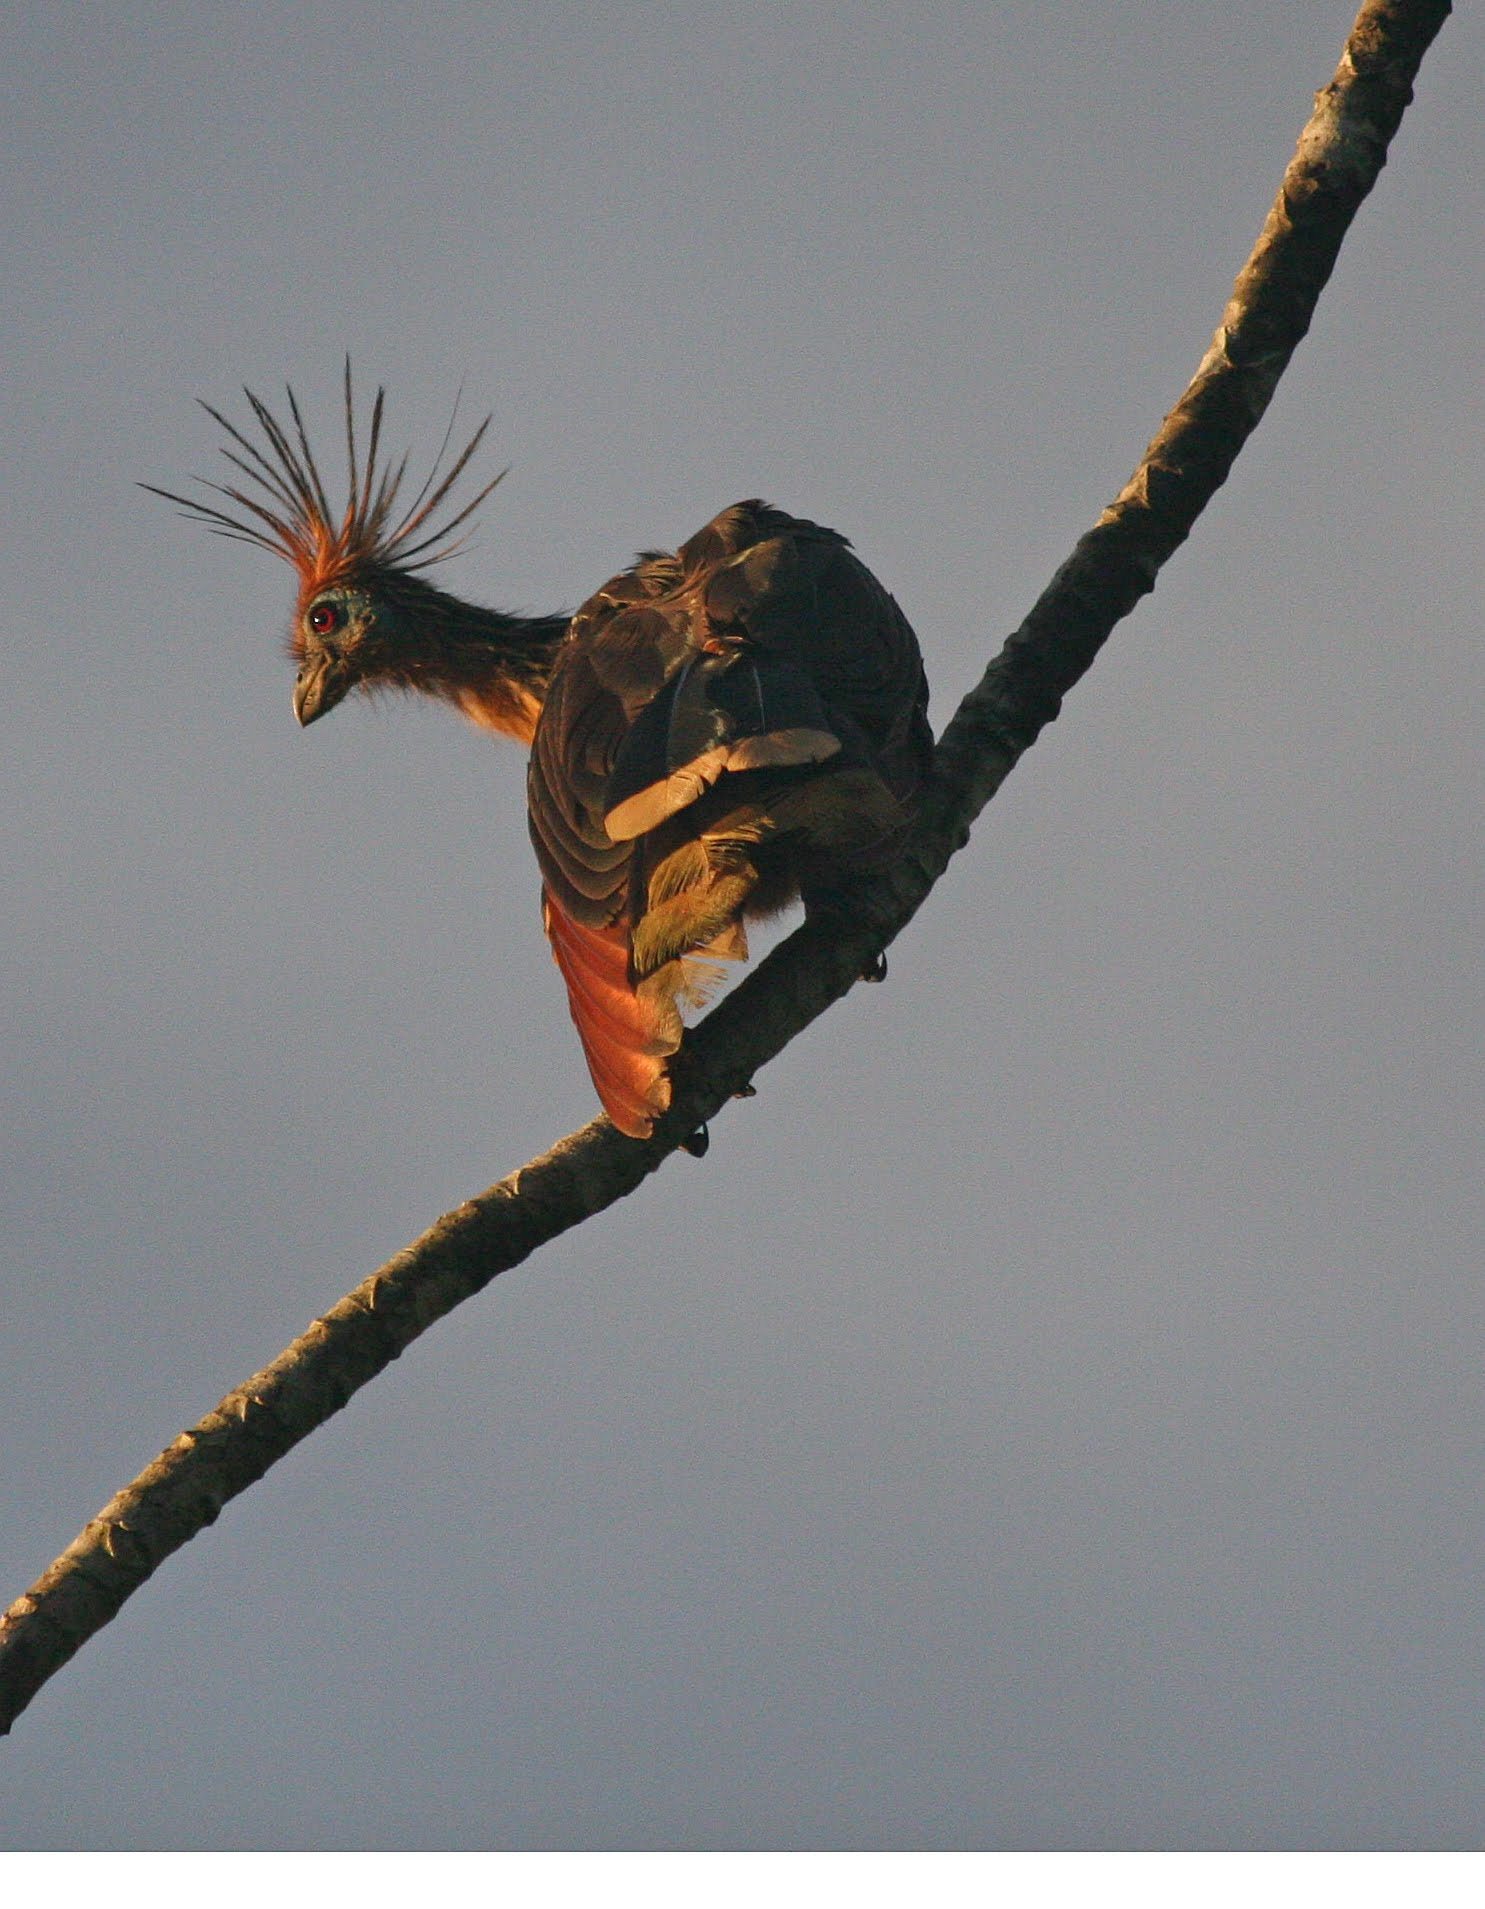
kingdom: Animalia
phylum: Chordata
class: Aves
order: Opisthocomiformes
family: Opisthocomidae
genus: Opisthocomus
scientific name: Opisthocomus hoazin
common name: Hoatzin
